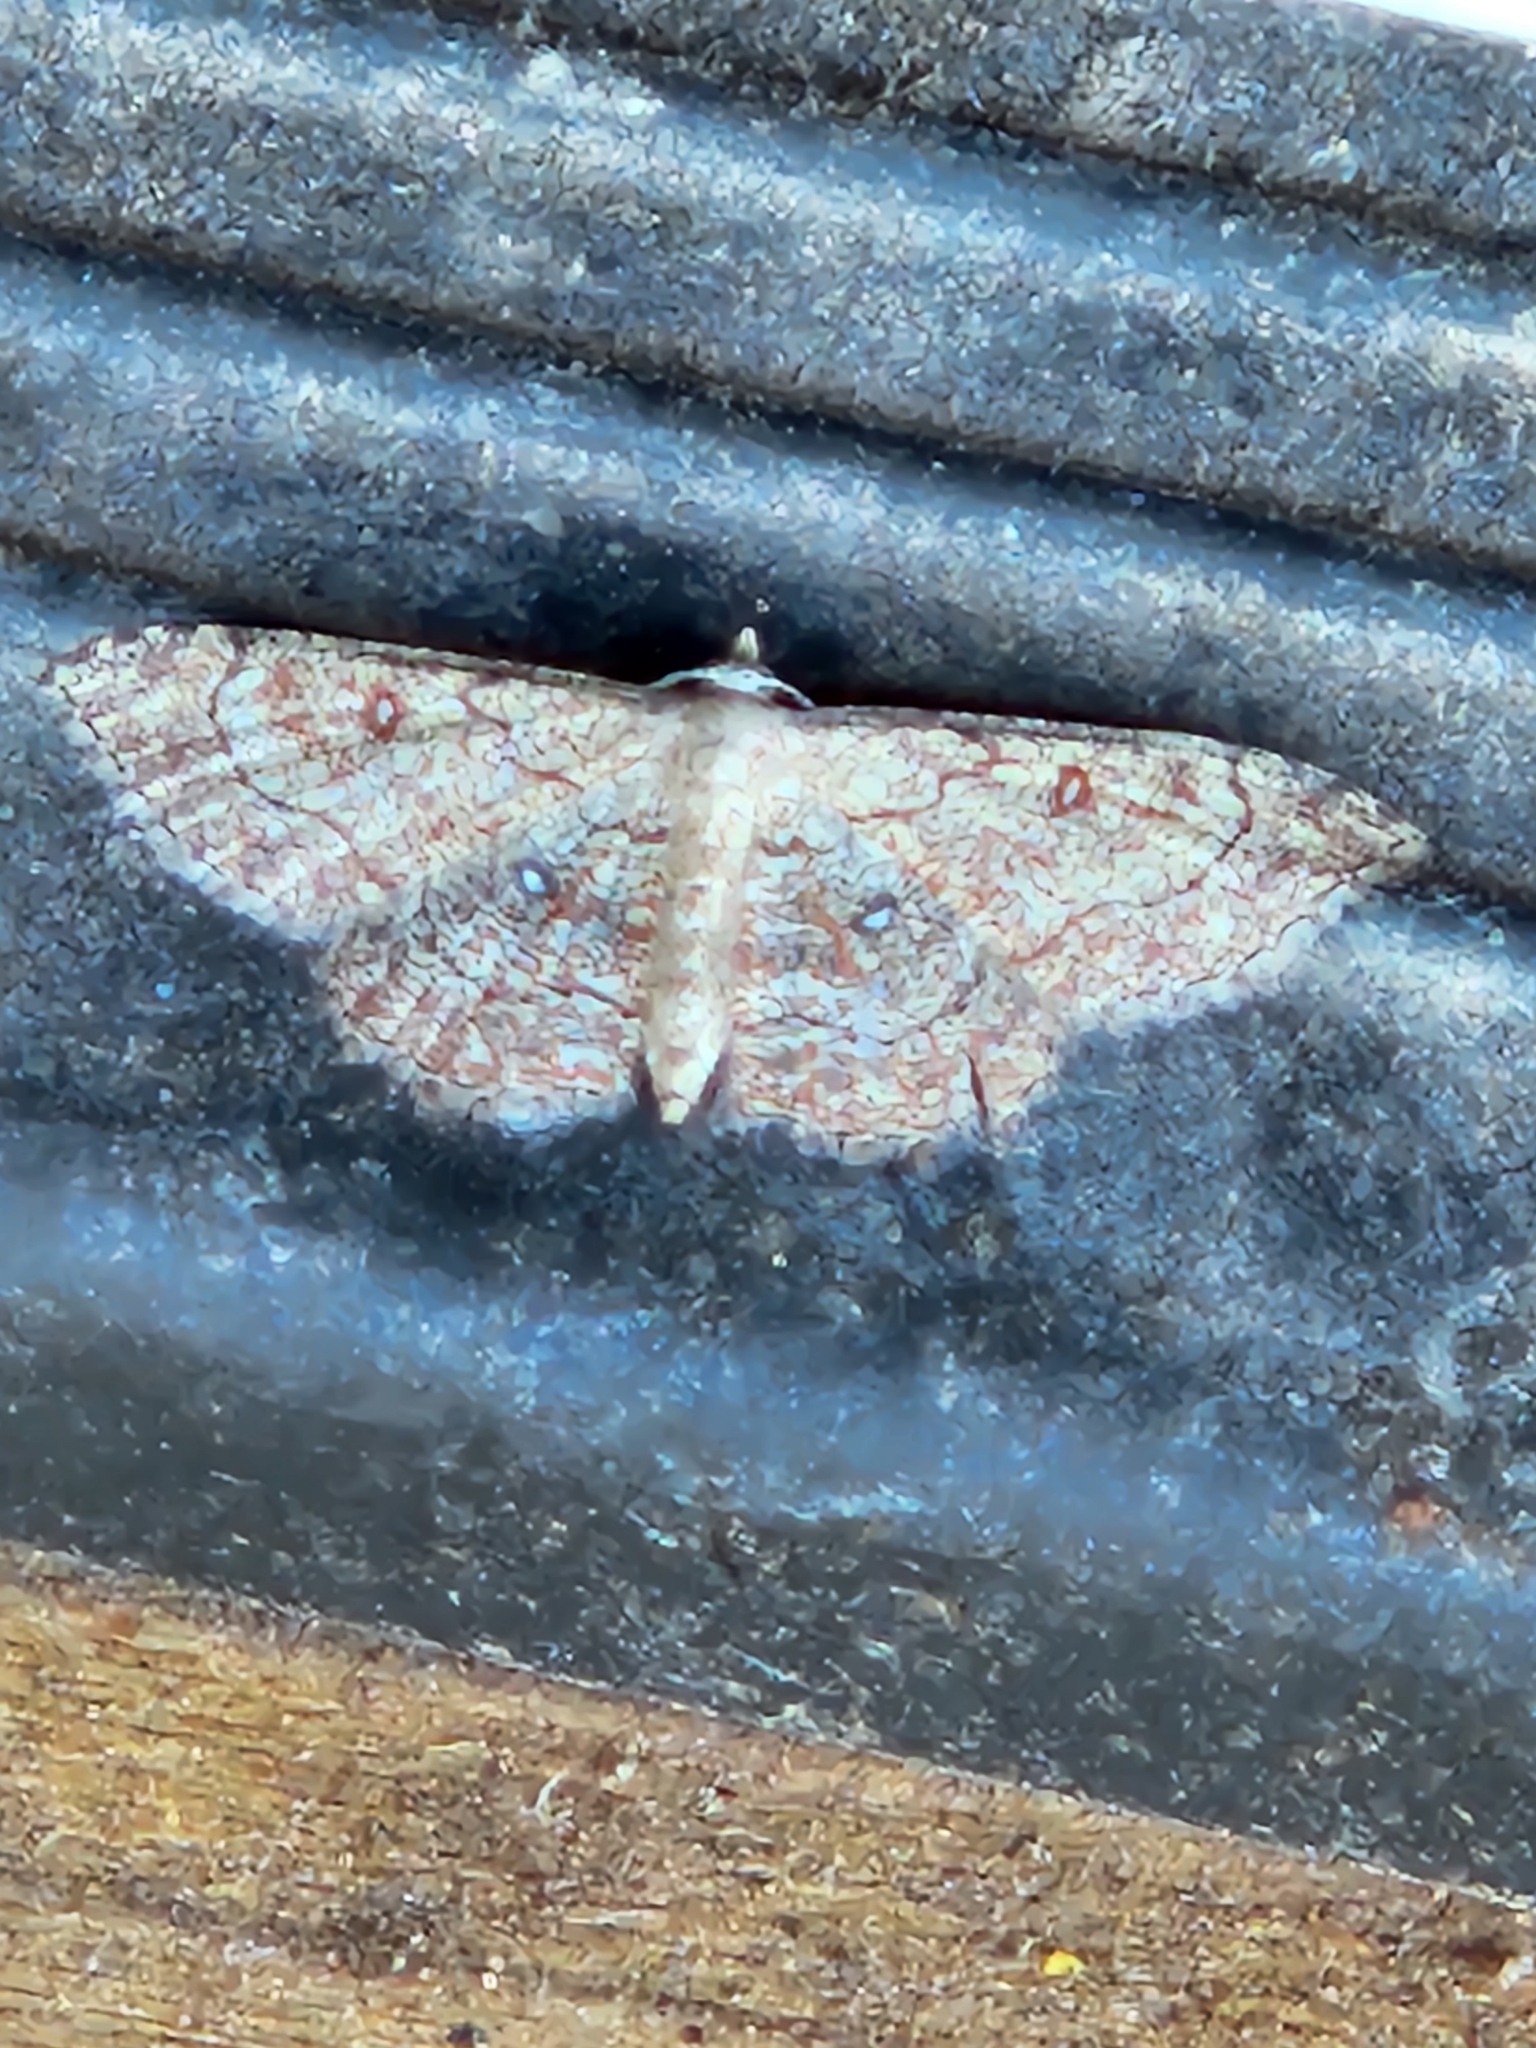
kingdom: Animalia
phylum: Arthropoda
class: Insecta
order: Lepidoptera
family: Geometridae
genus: Cyclophora
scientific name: Cyclophora nanaria
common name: Cankerworm
